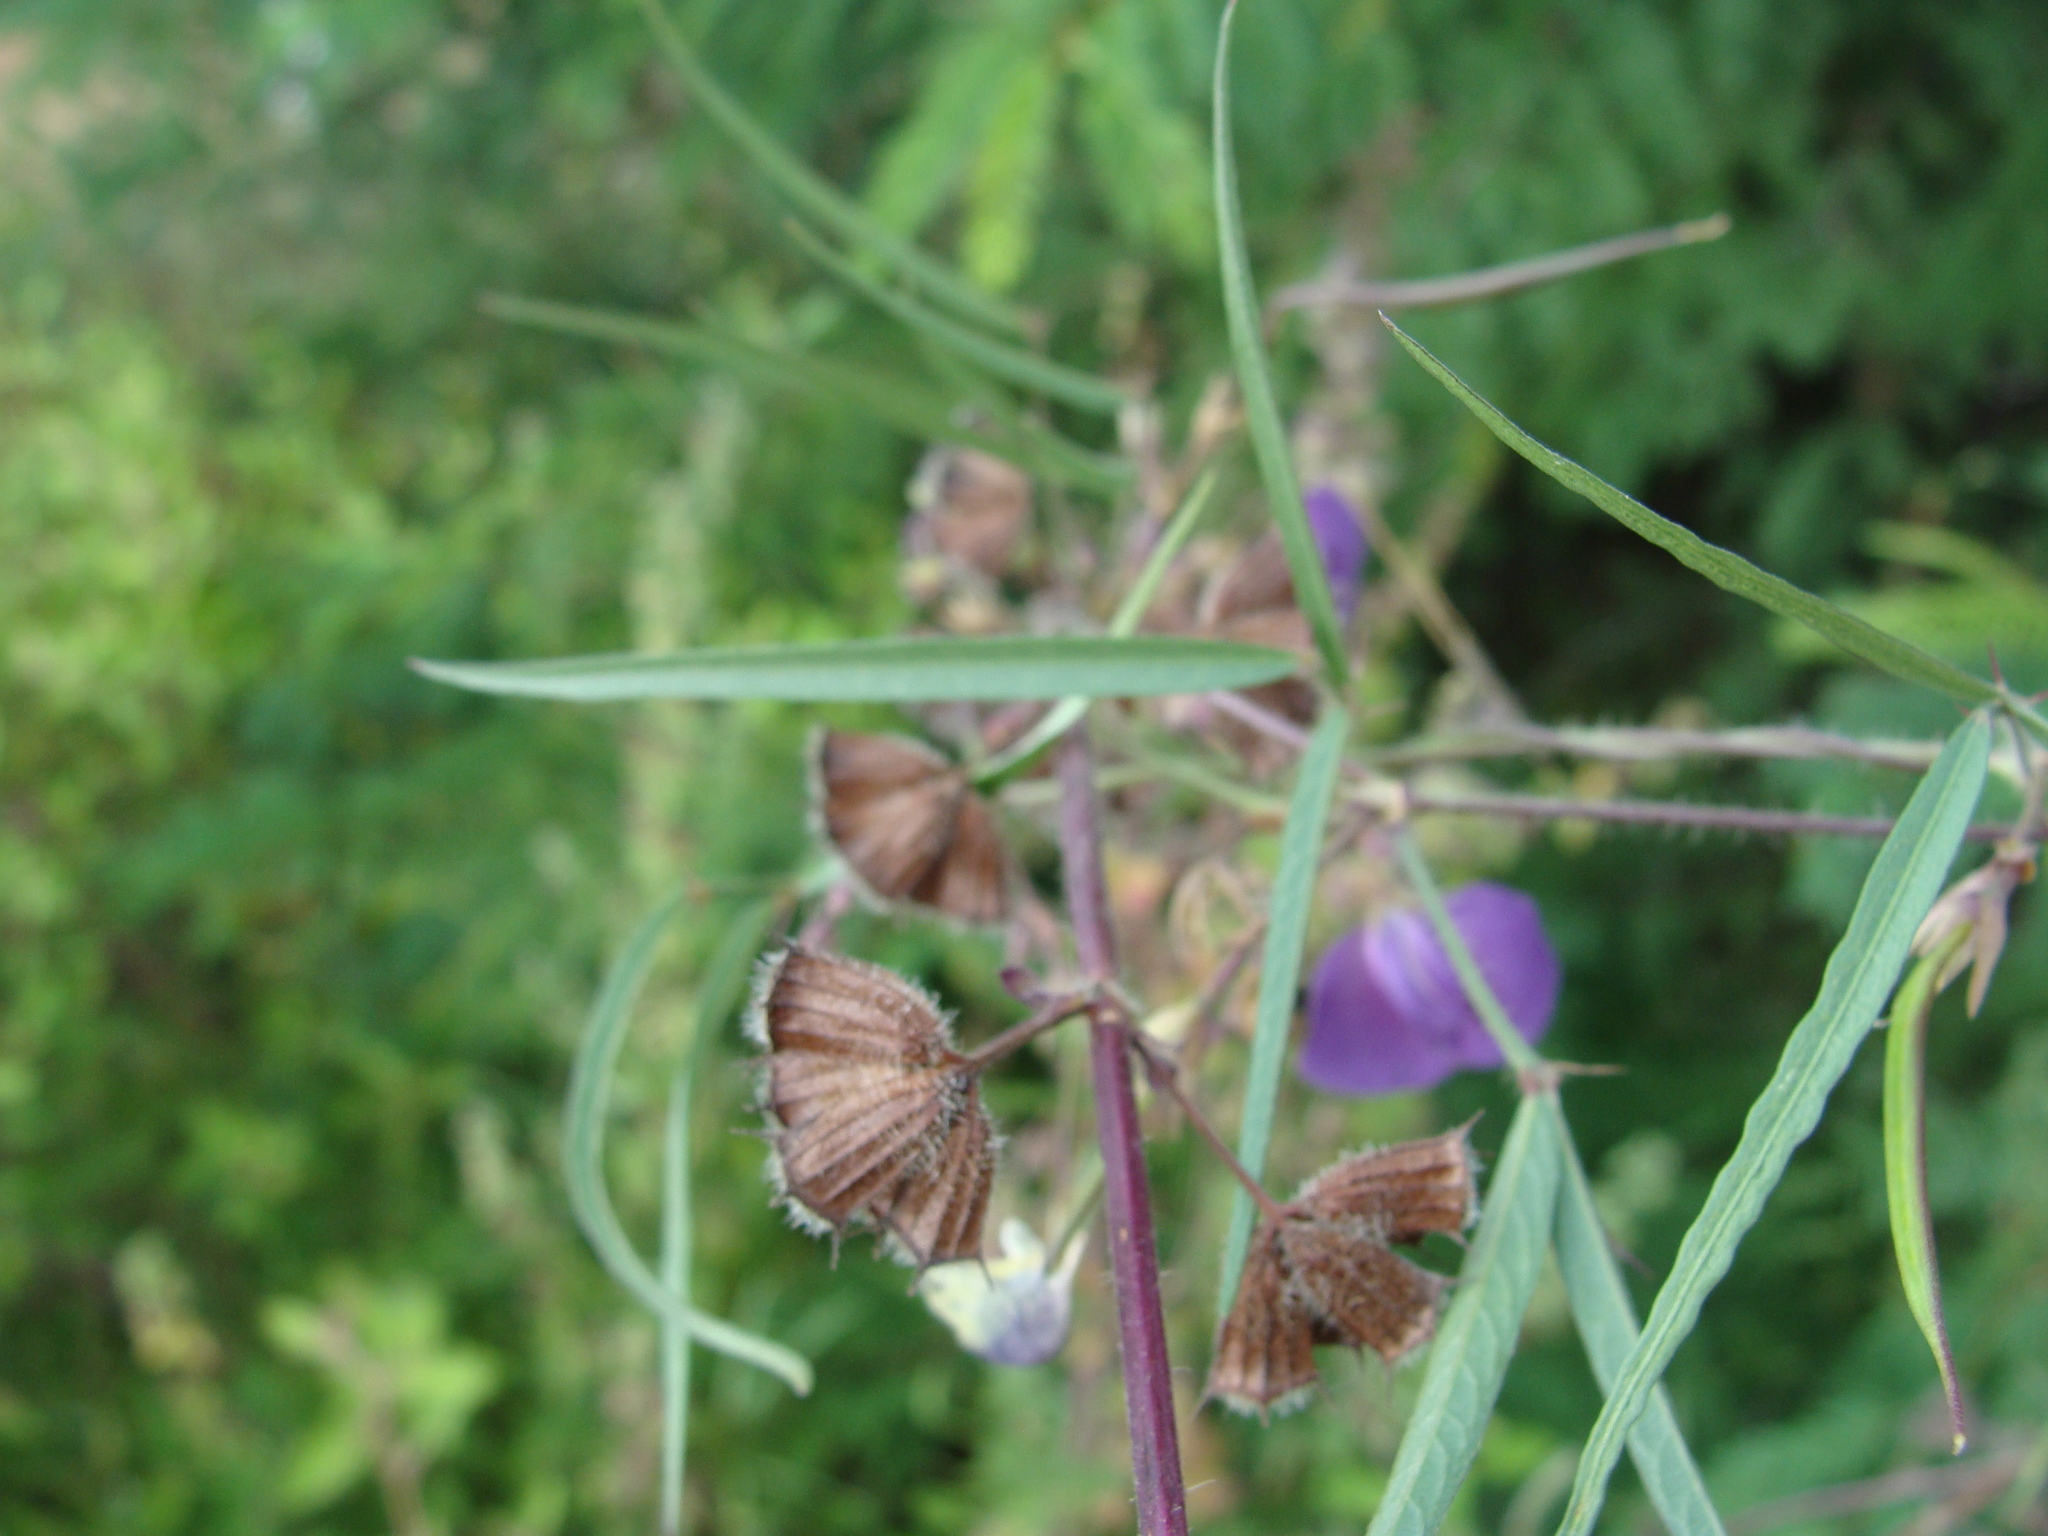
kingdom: Plantae
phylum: Tracheophyta
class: Magnoliopsida
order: Fabales
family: Fabaceae
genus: Centrosema
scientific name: Centrosema virginianum
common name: Butterfly-pea
